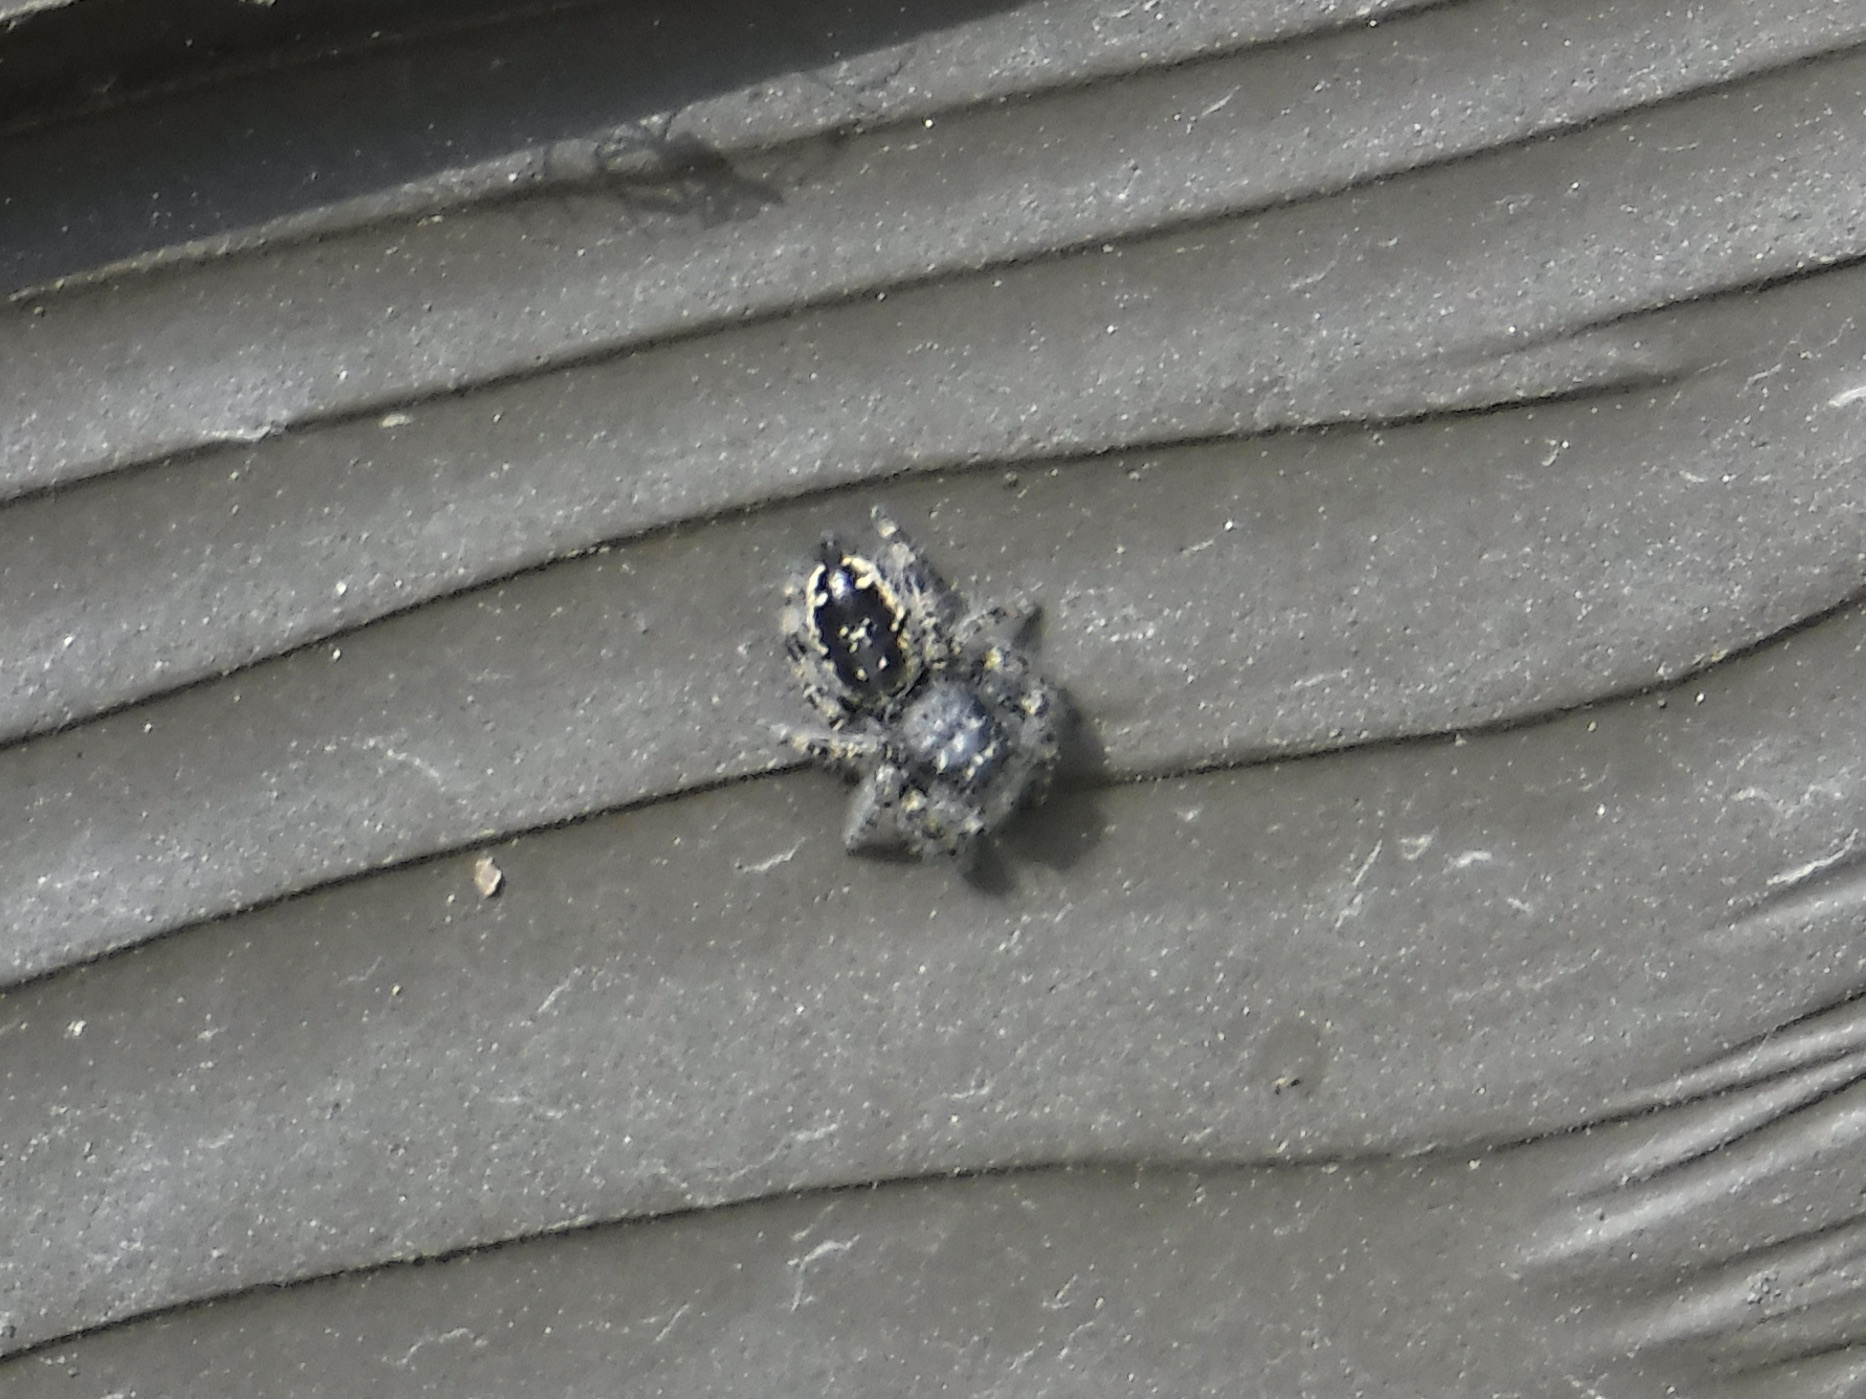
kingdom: Animalia
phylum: Arthropoda
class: Arachnida
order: Araneae
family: Salticidae
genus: Phidippus
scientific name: Phidippus borealis
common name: Boreal tufted jumping spider
